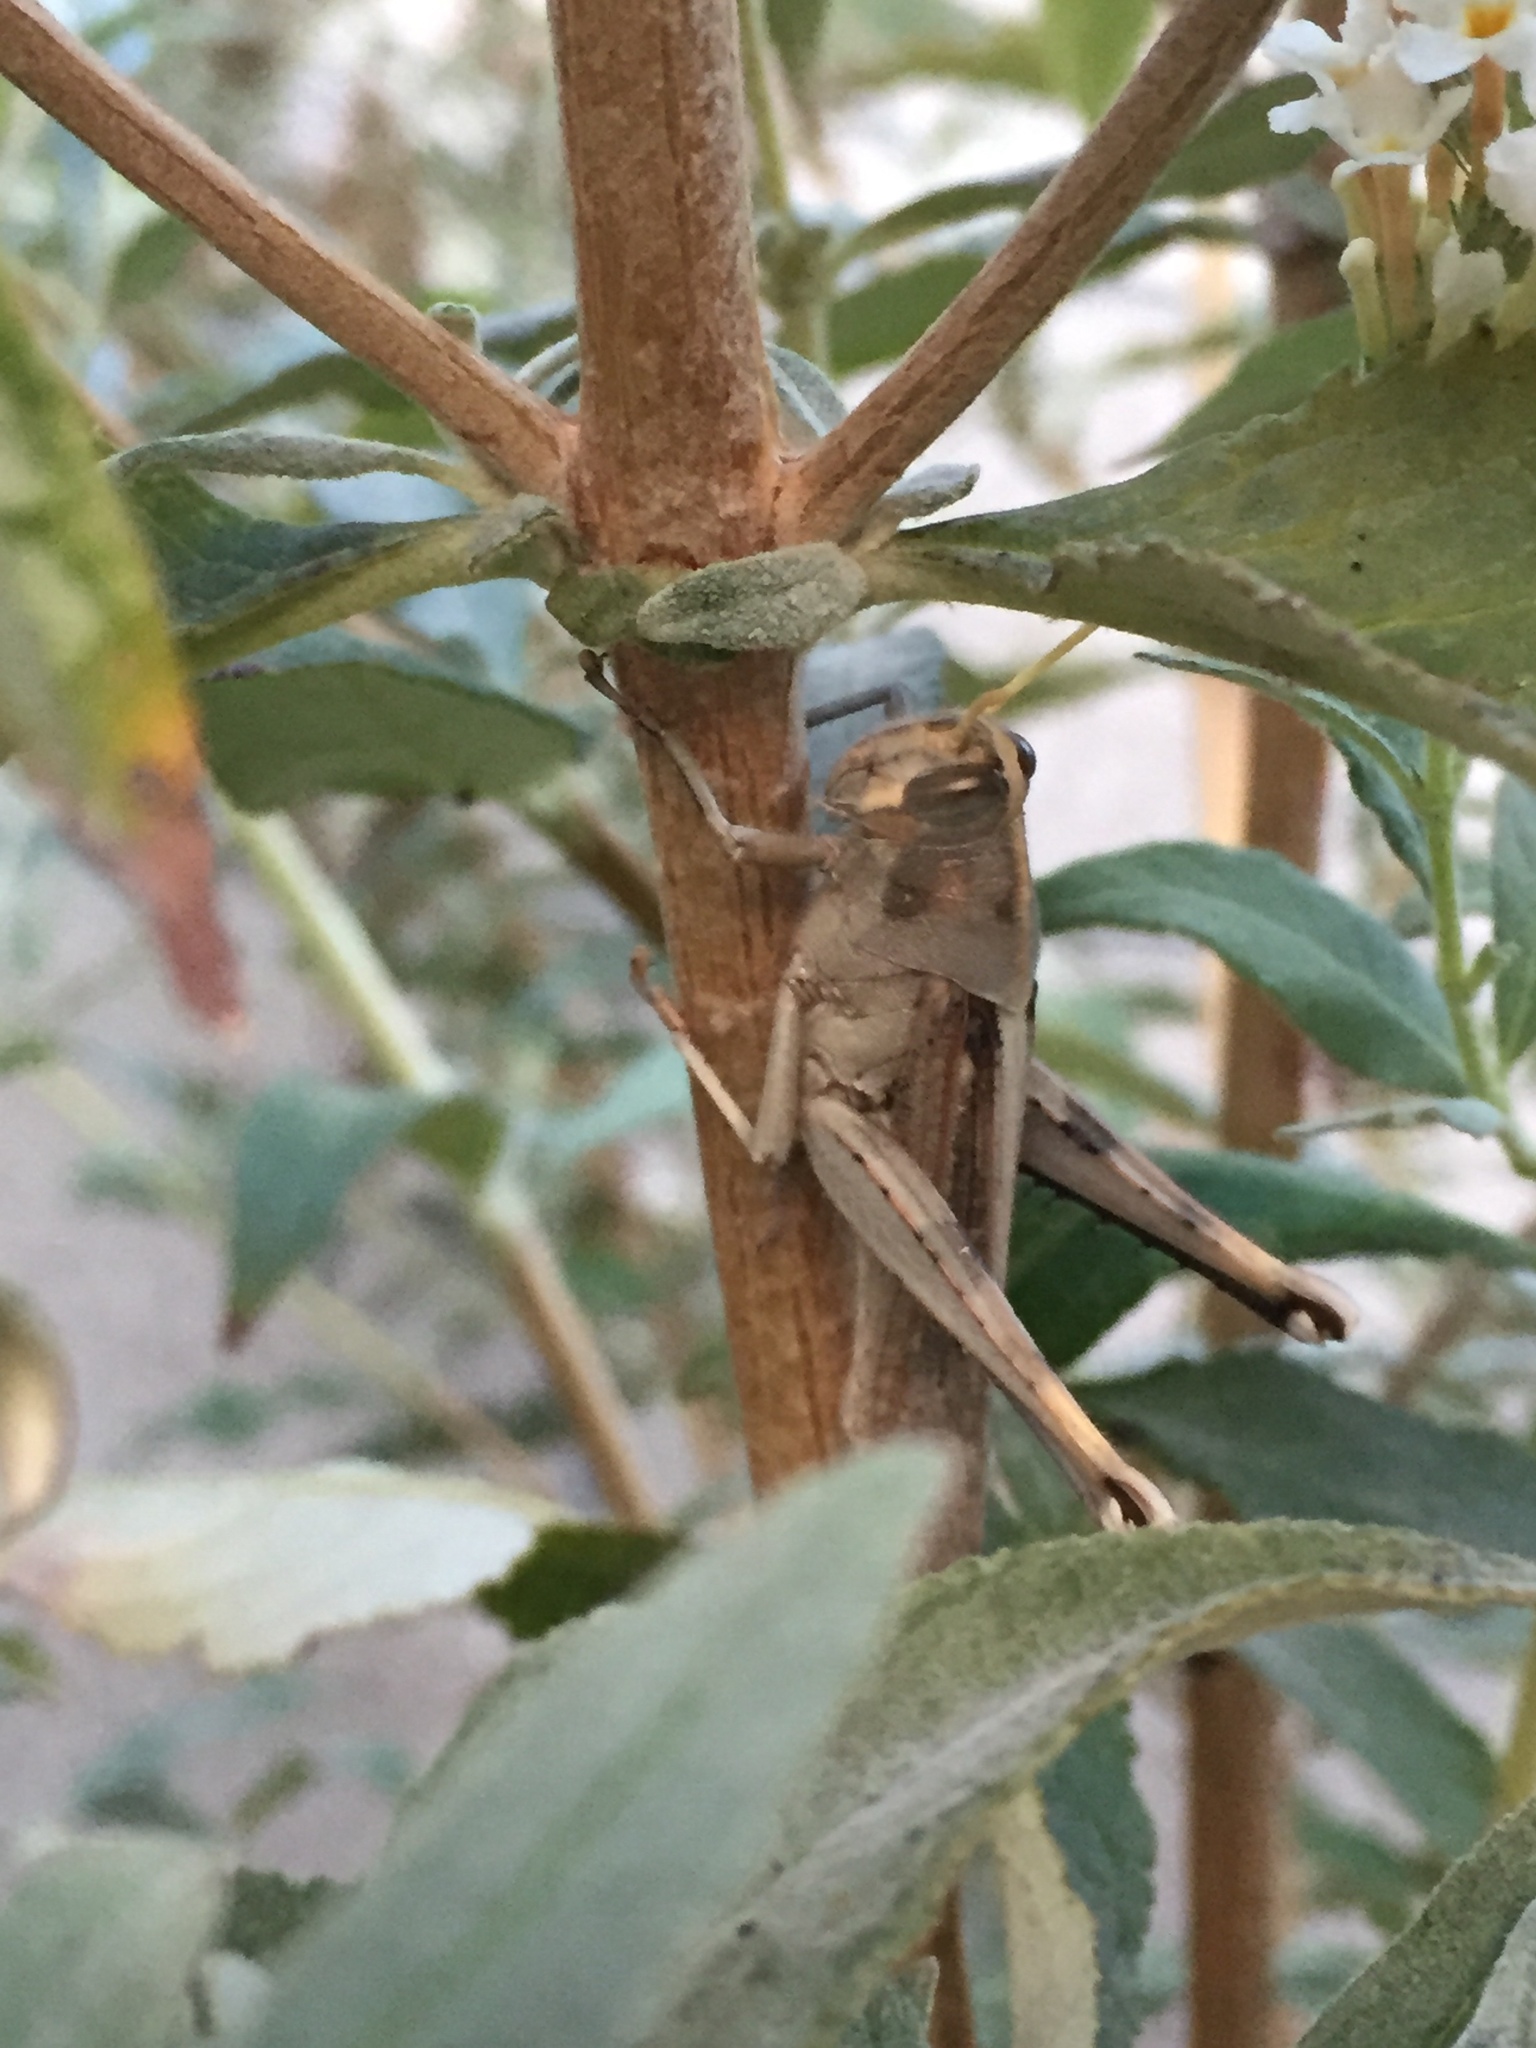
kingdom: Animalia
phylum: Arthropoda
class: Insecta
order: Orthoptera
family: Acrididae
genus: Schistocerca
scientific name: Schistocerca nitens
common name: Vagrant grasshopper
